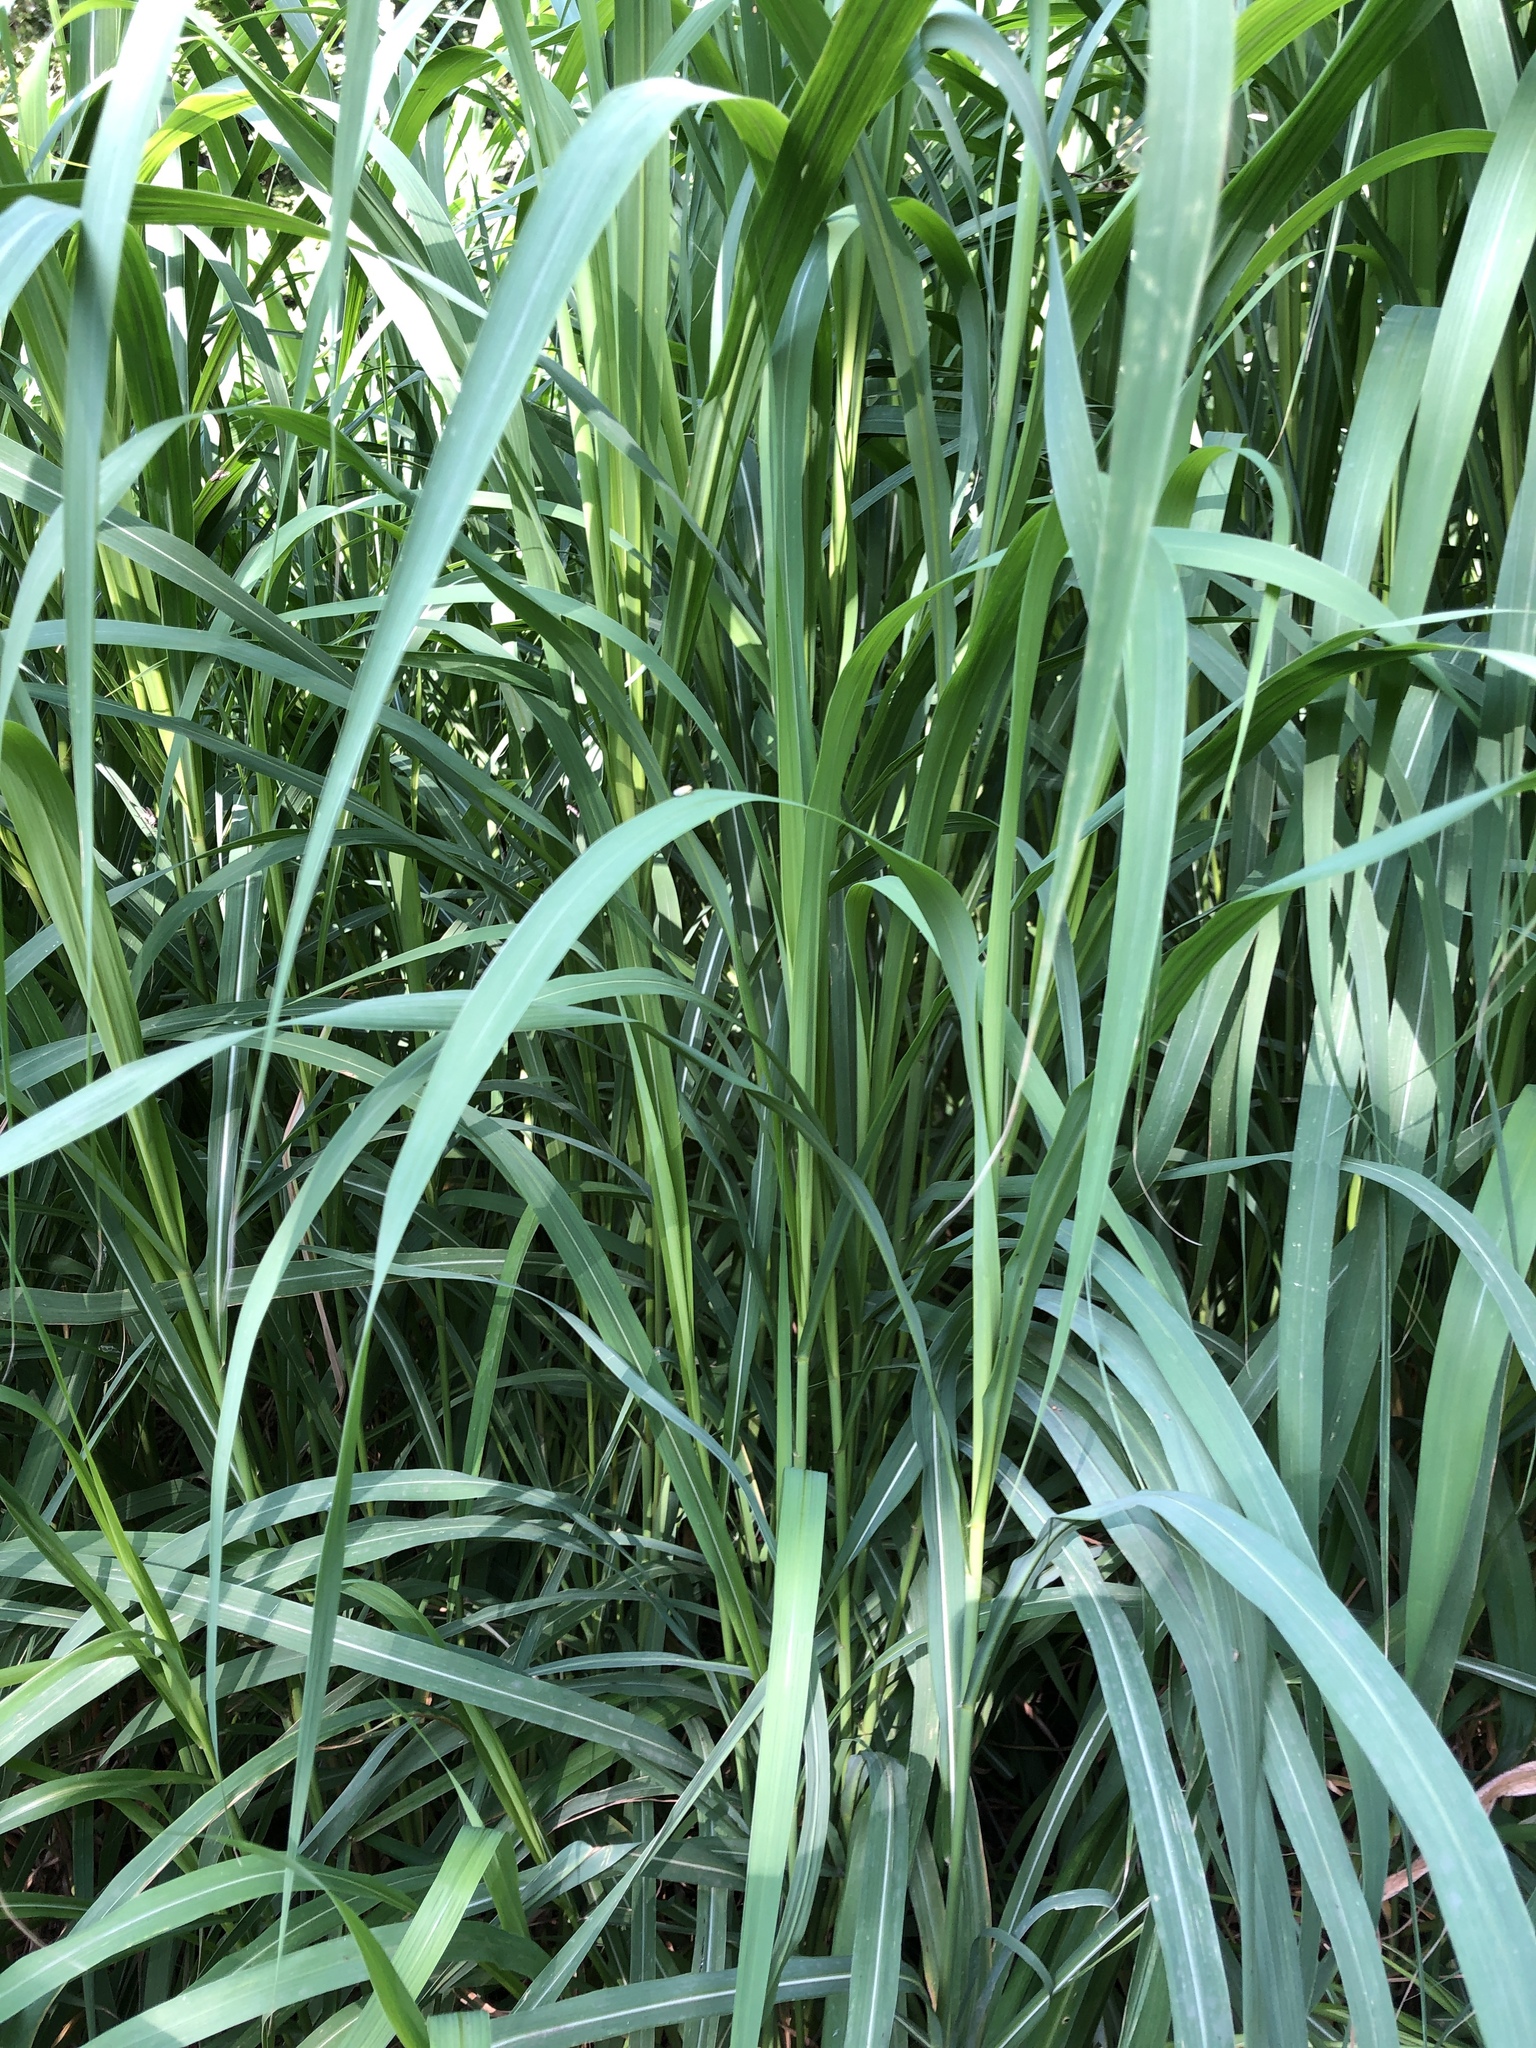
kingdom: Plantae
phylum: Tracheophyta
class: Liliopsida
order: Poales
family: Poaceae
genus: Phragmites
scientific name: Phragmites australis
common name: Common reed
